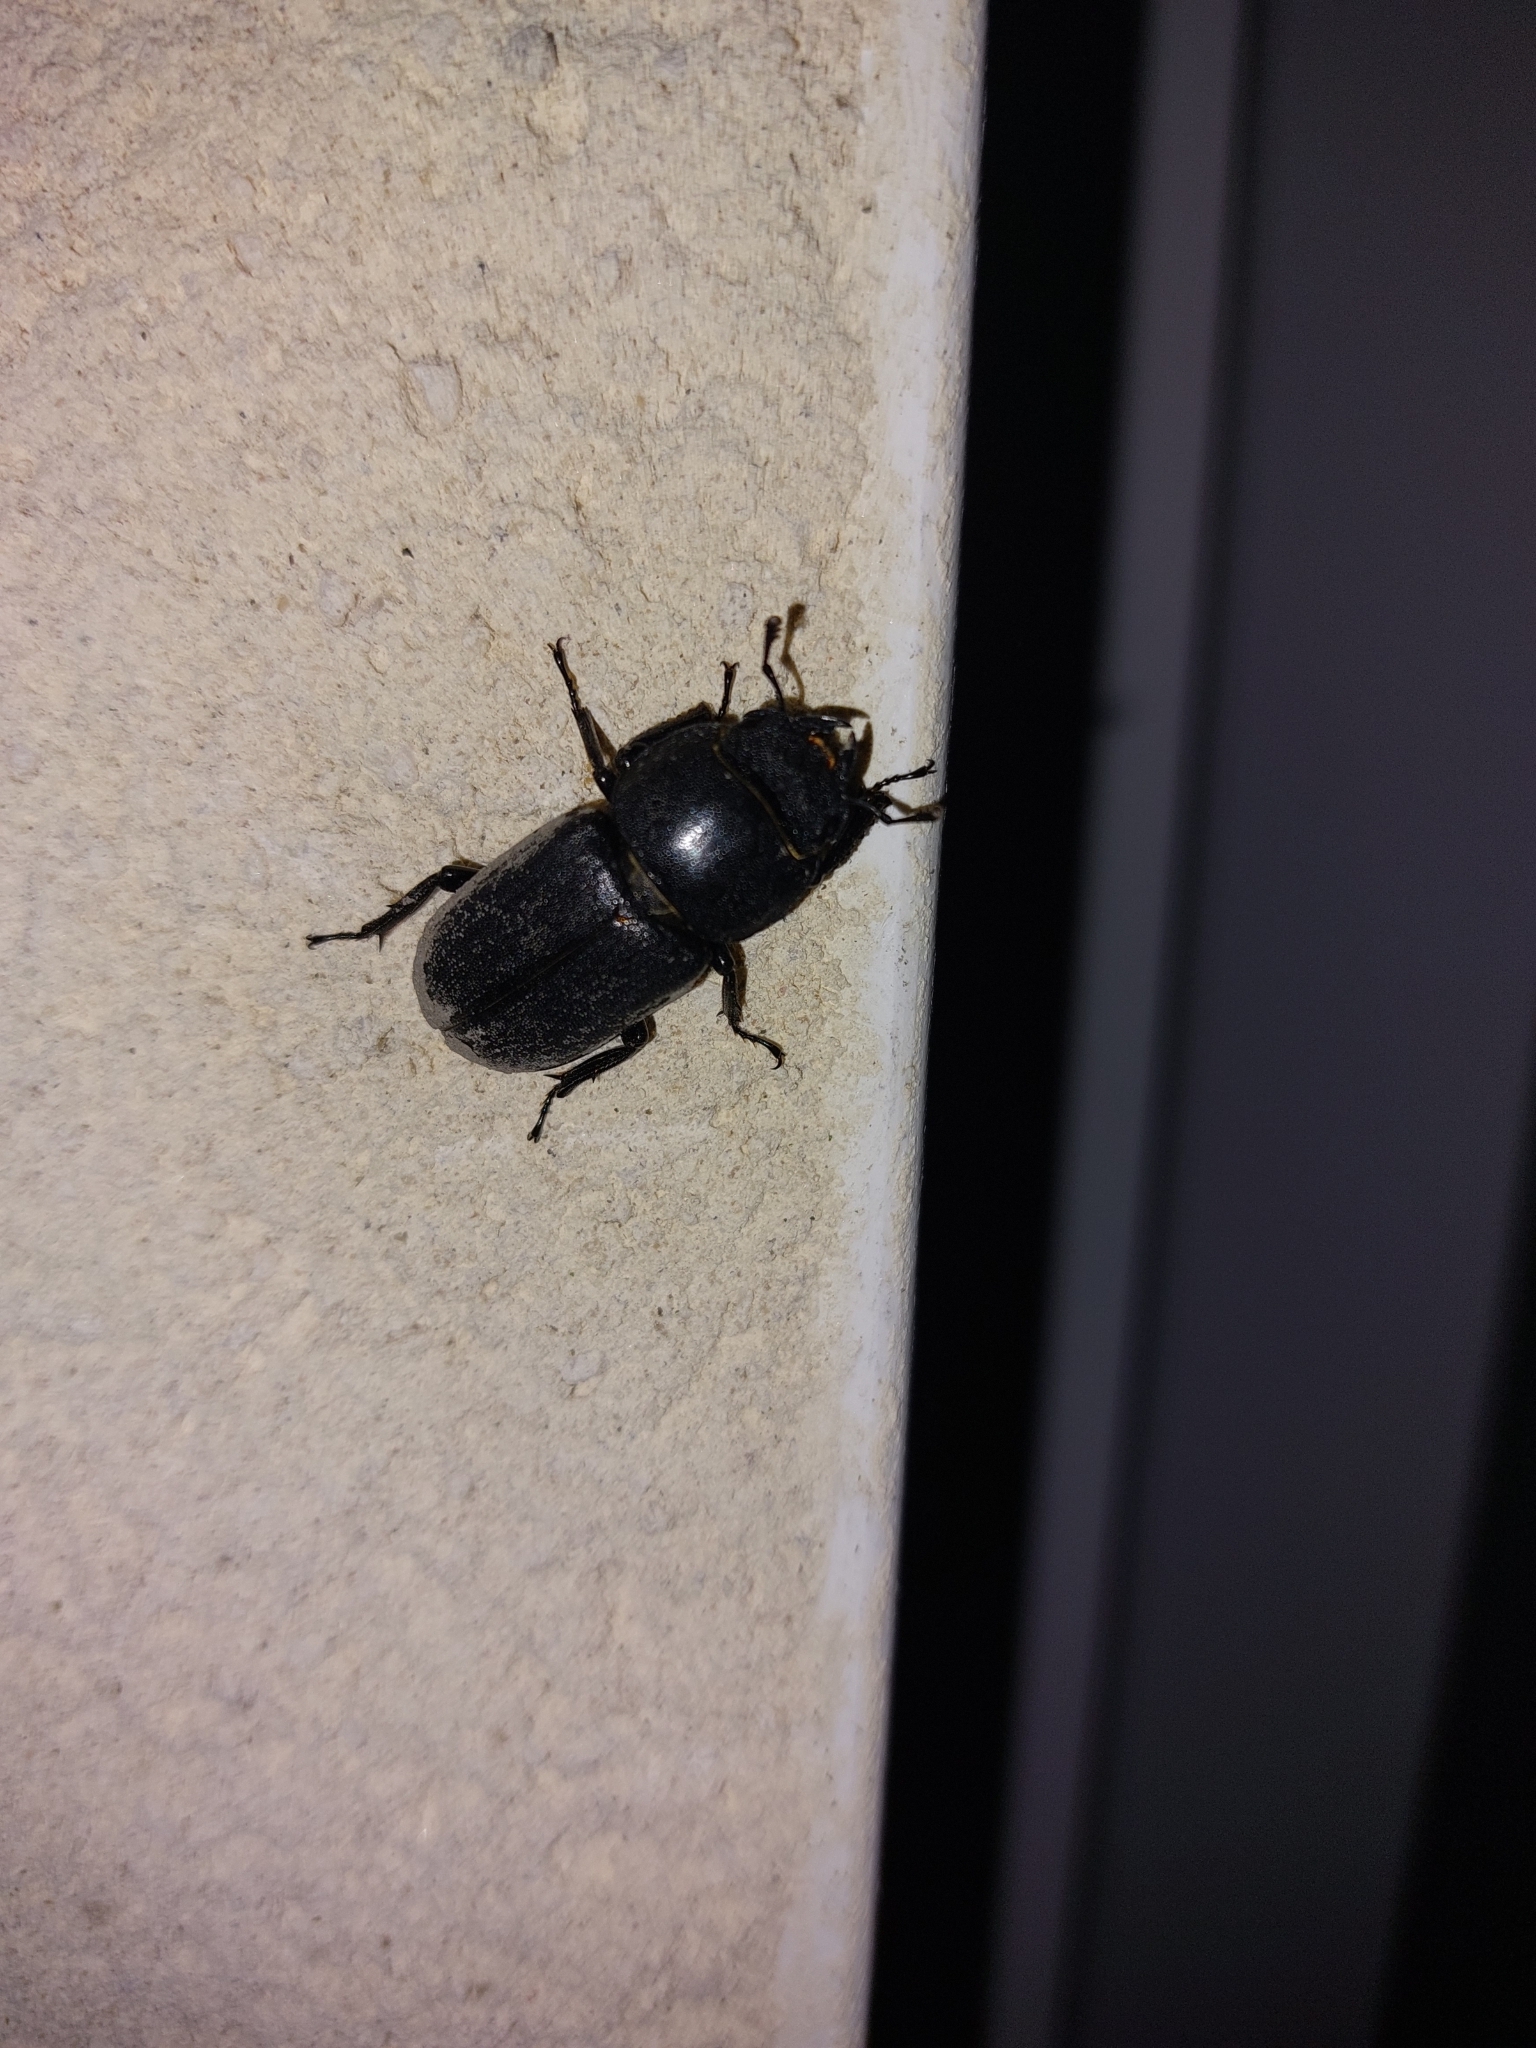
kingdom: Animalia
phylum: Arthropoda
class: Insecta
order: Coleoptera
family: Lucanidae
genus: Dorcus
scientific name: Dorcus parallelipipedus
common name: Lesser stag beetle
